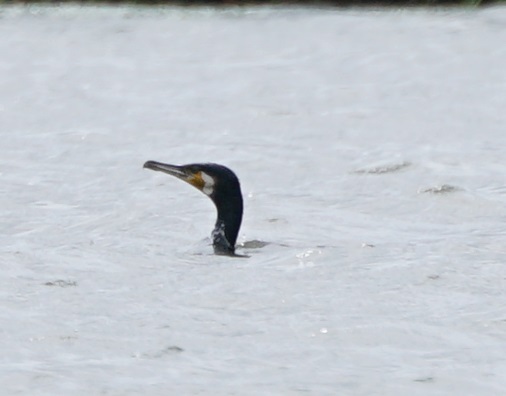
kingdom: Animalia
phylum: Chordata
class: Aves
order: Suliformes
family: Phalacrocoracidae
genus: Phalacrocorax
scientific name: Phalacrocorax carbo
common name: Great cormorant
